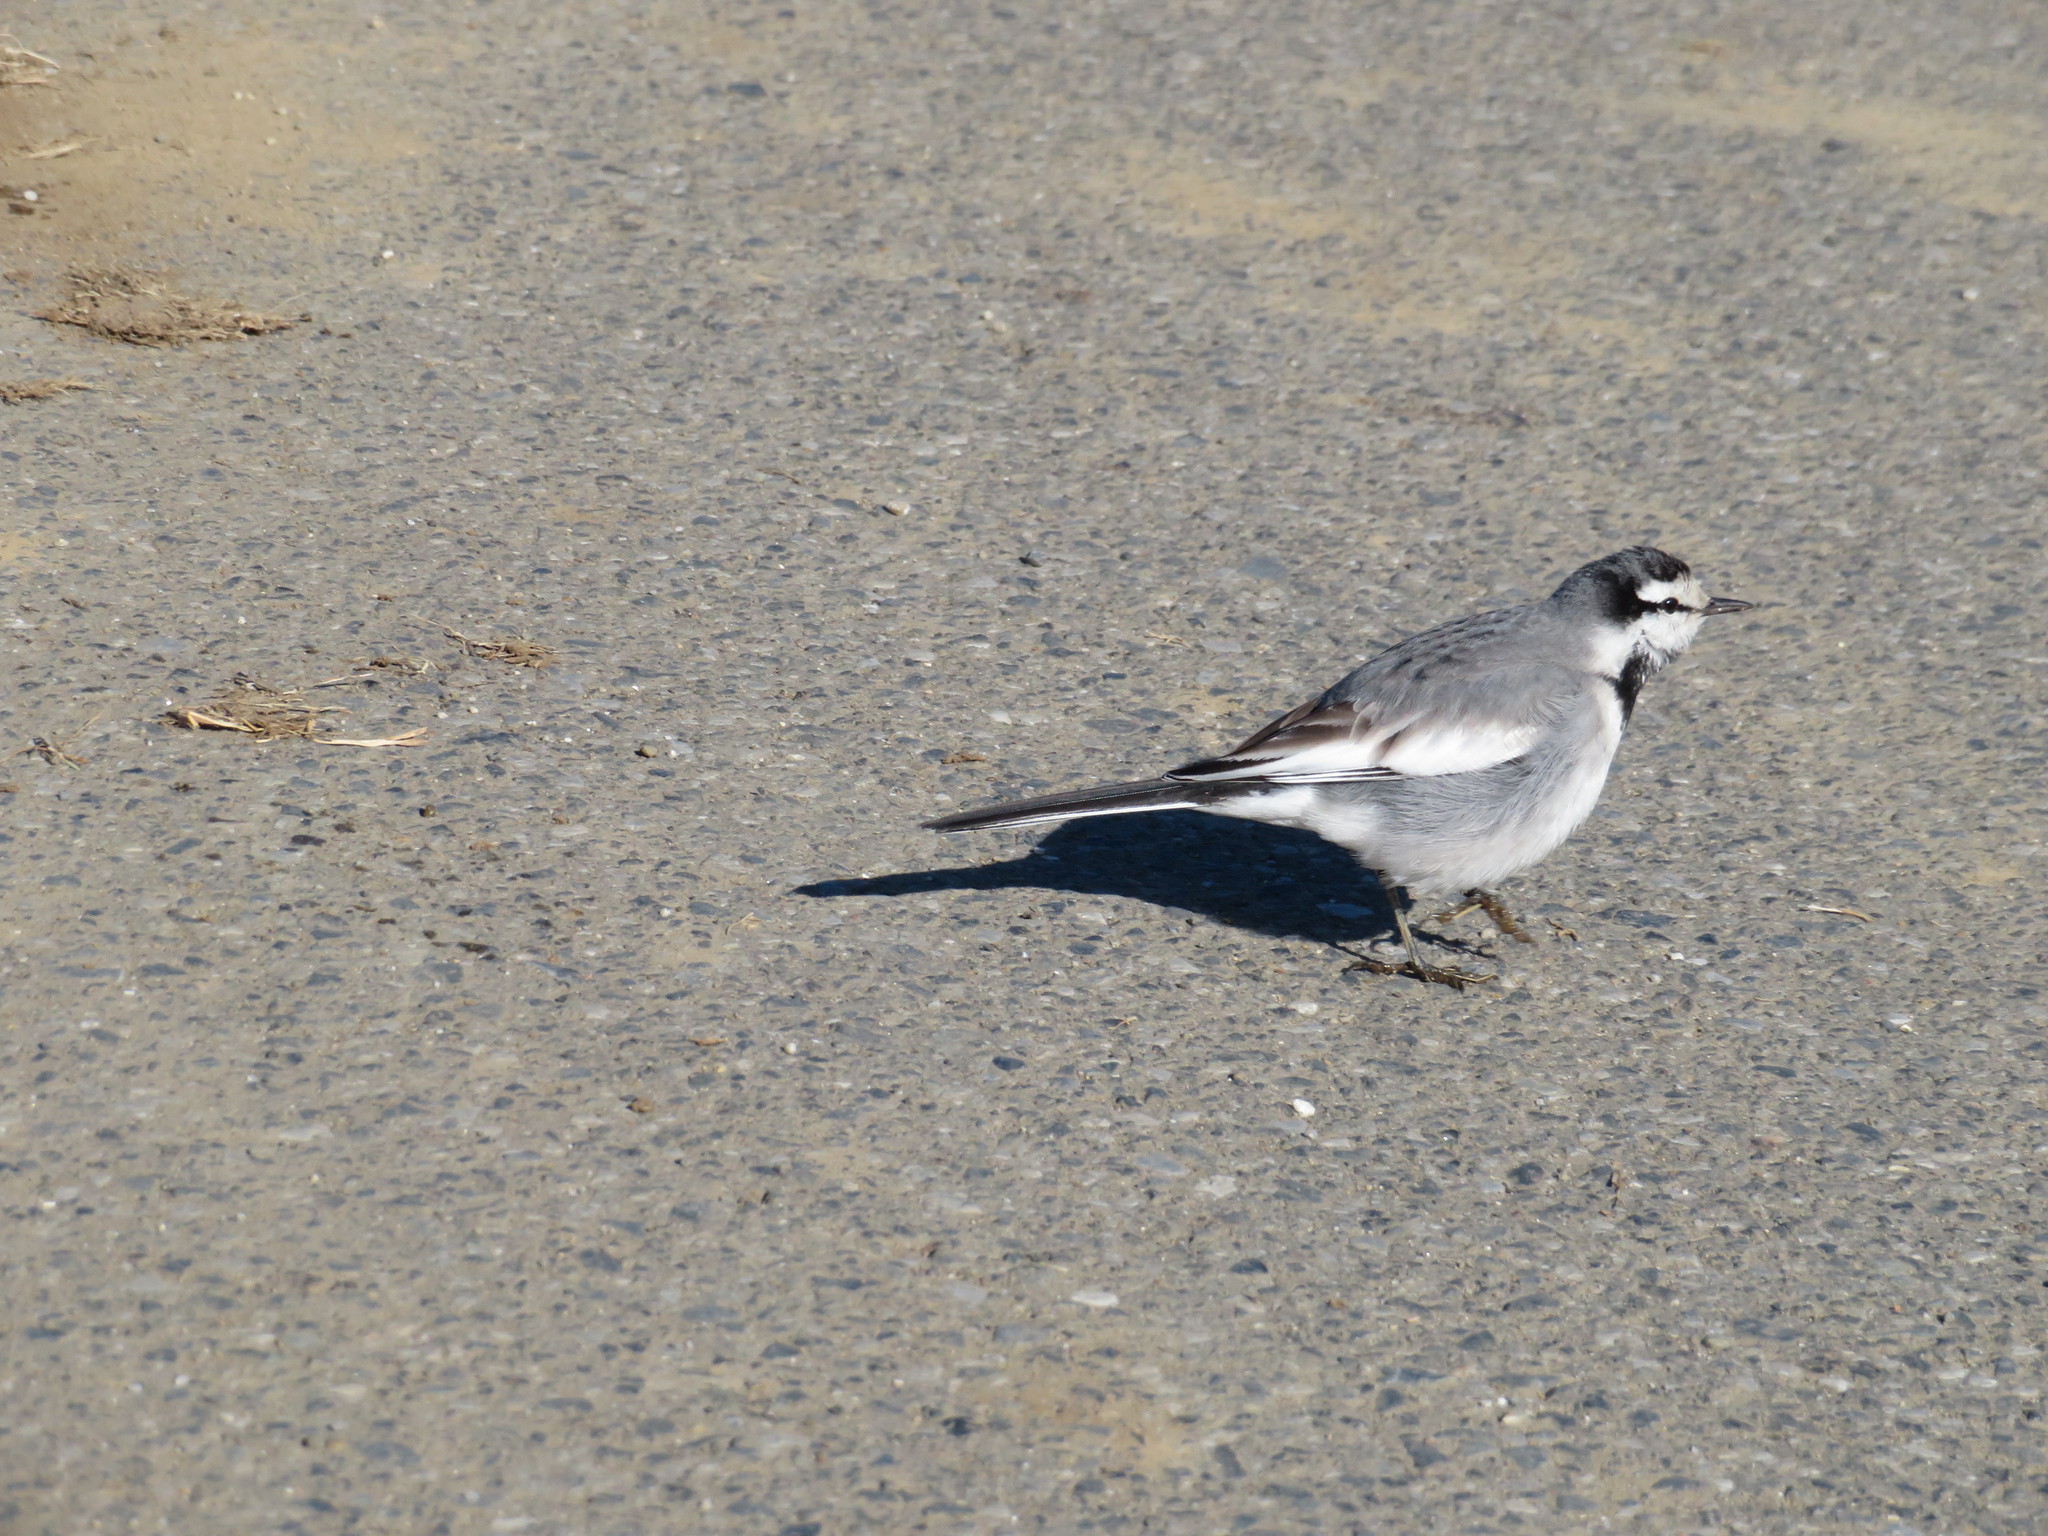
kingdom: Animalia
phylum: Chordata
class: Aves
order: Passeriformes
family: Motacillidae
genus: Motacilla
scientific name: Motacilla alba
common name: White wagtail
